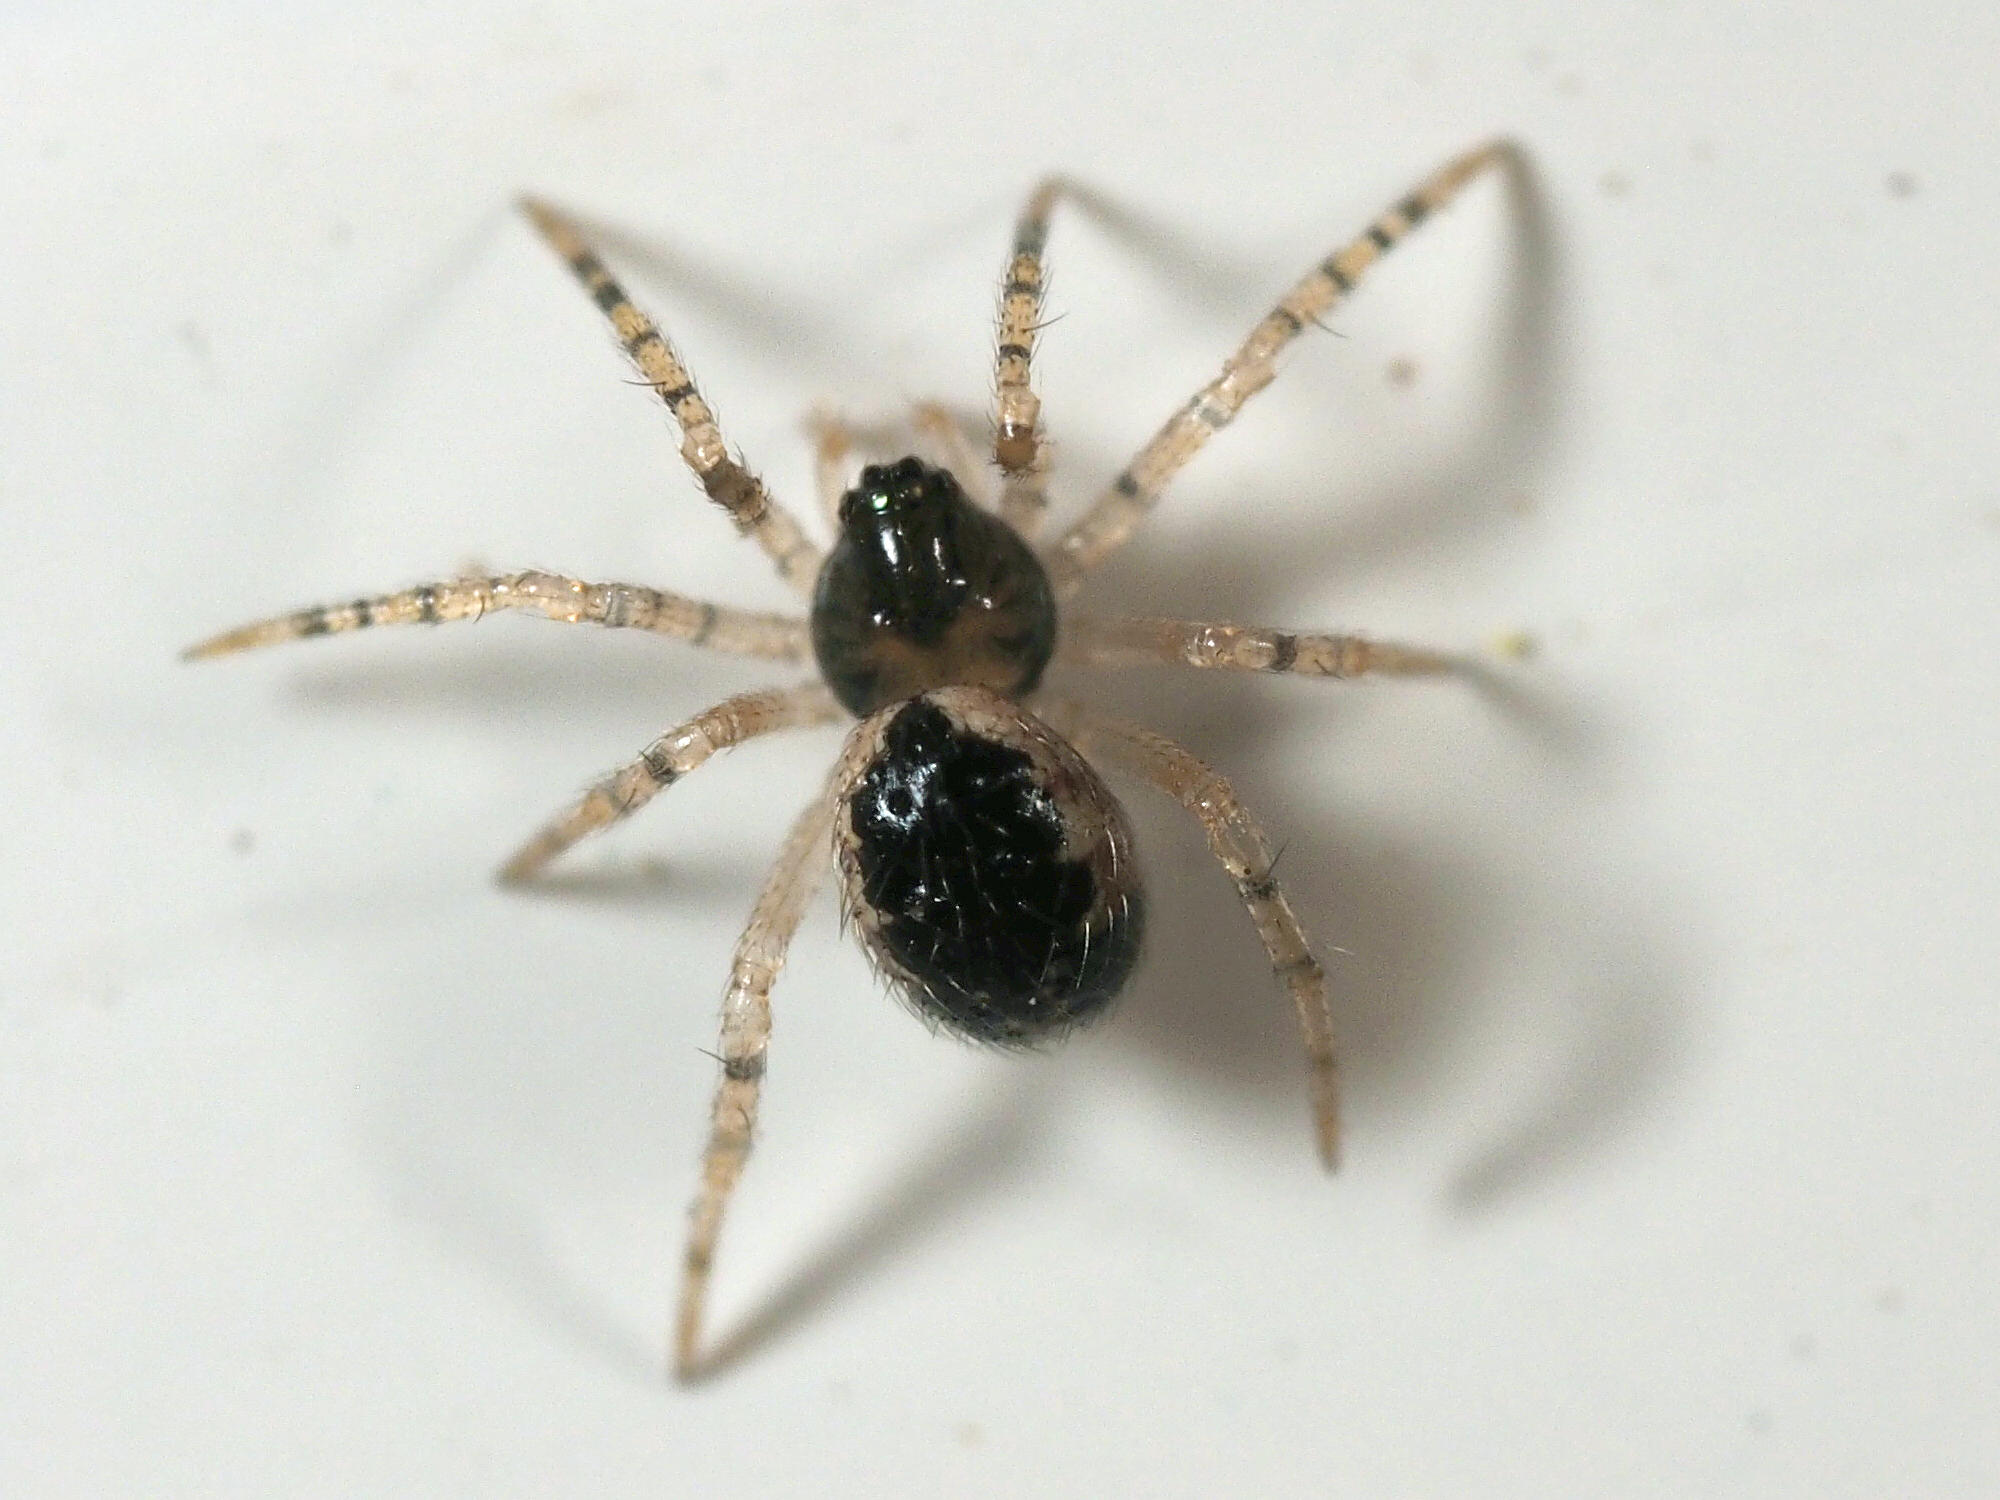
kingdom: Animalia
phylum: Arthropoda
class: Arachnida
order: Araneae
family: Theridiidae
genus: Sardinidion
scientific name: Sardinidion blackwalli
